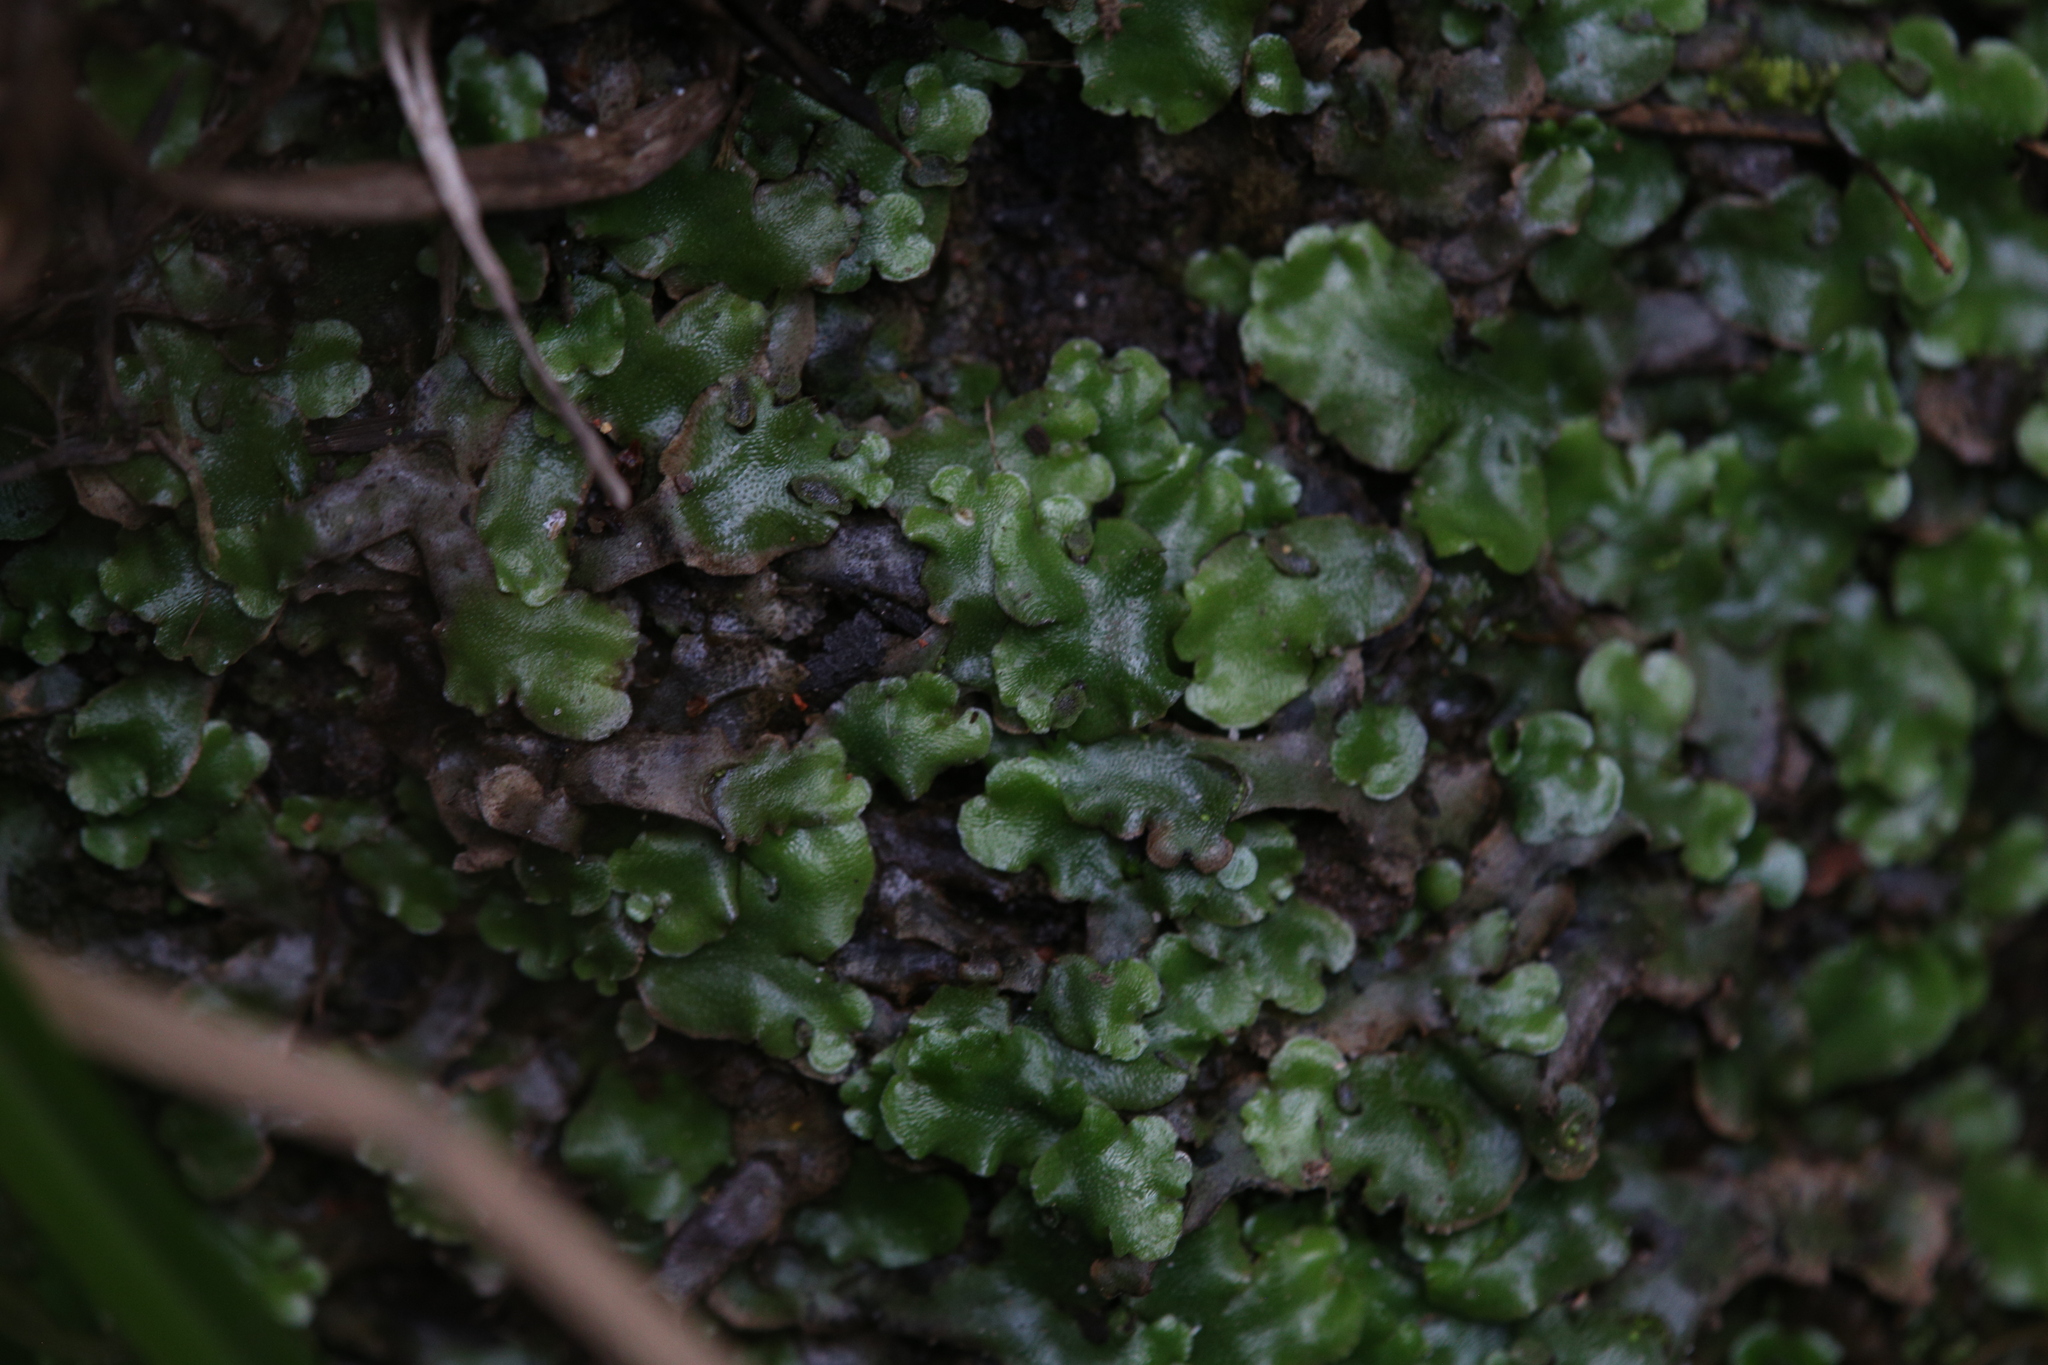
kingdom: Plantae
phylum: Marchantiophyta
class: Marchantiopsida
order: Lunulariales
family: Lunulariaceae
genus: Lunularia
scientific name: Lunularia cruciata
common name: Crescent-cup liverwort
